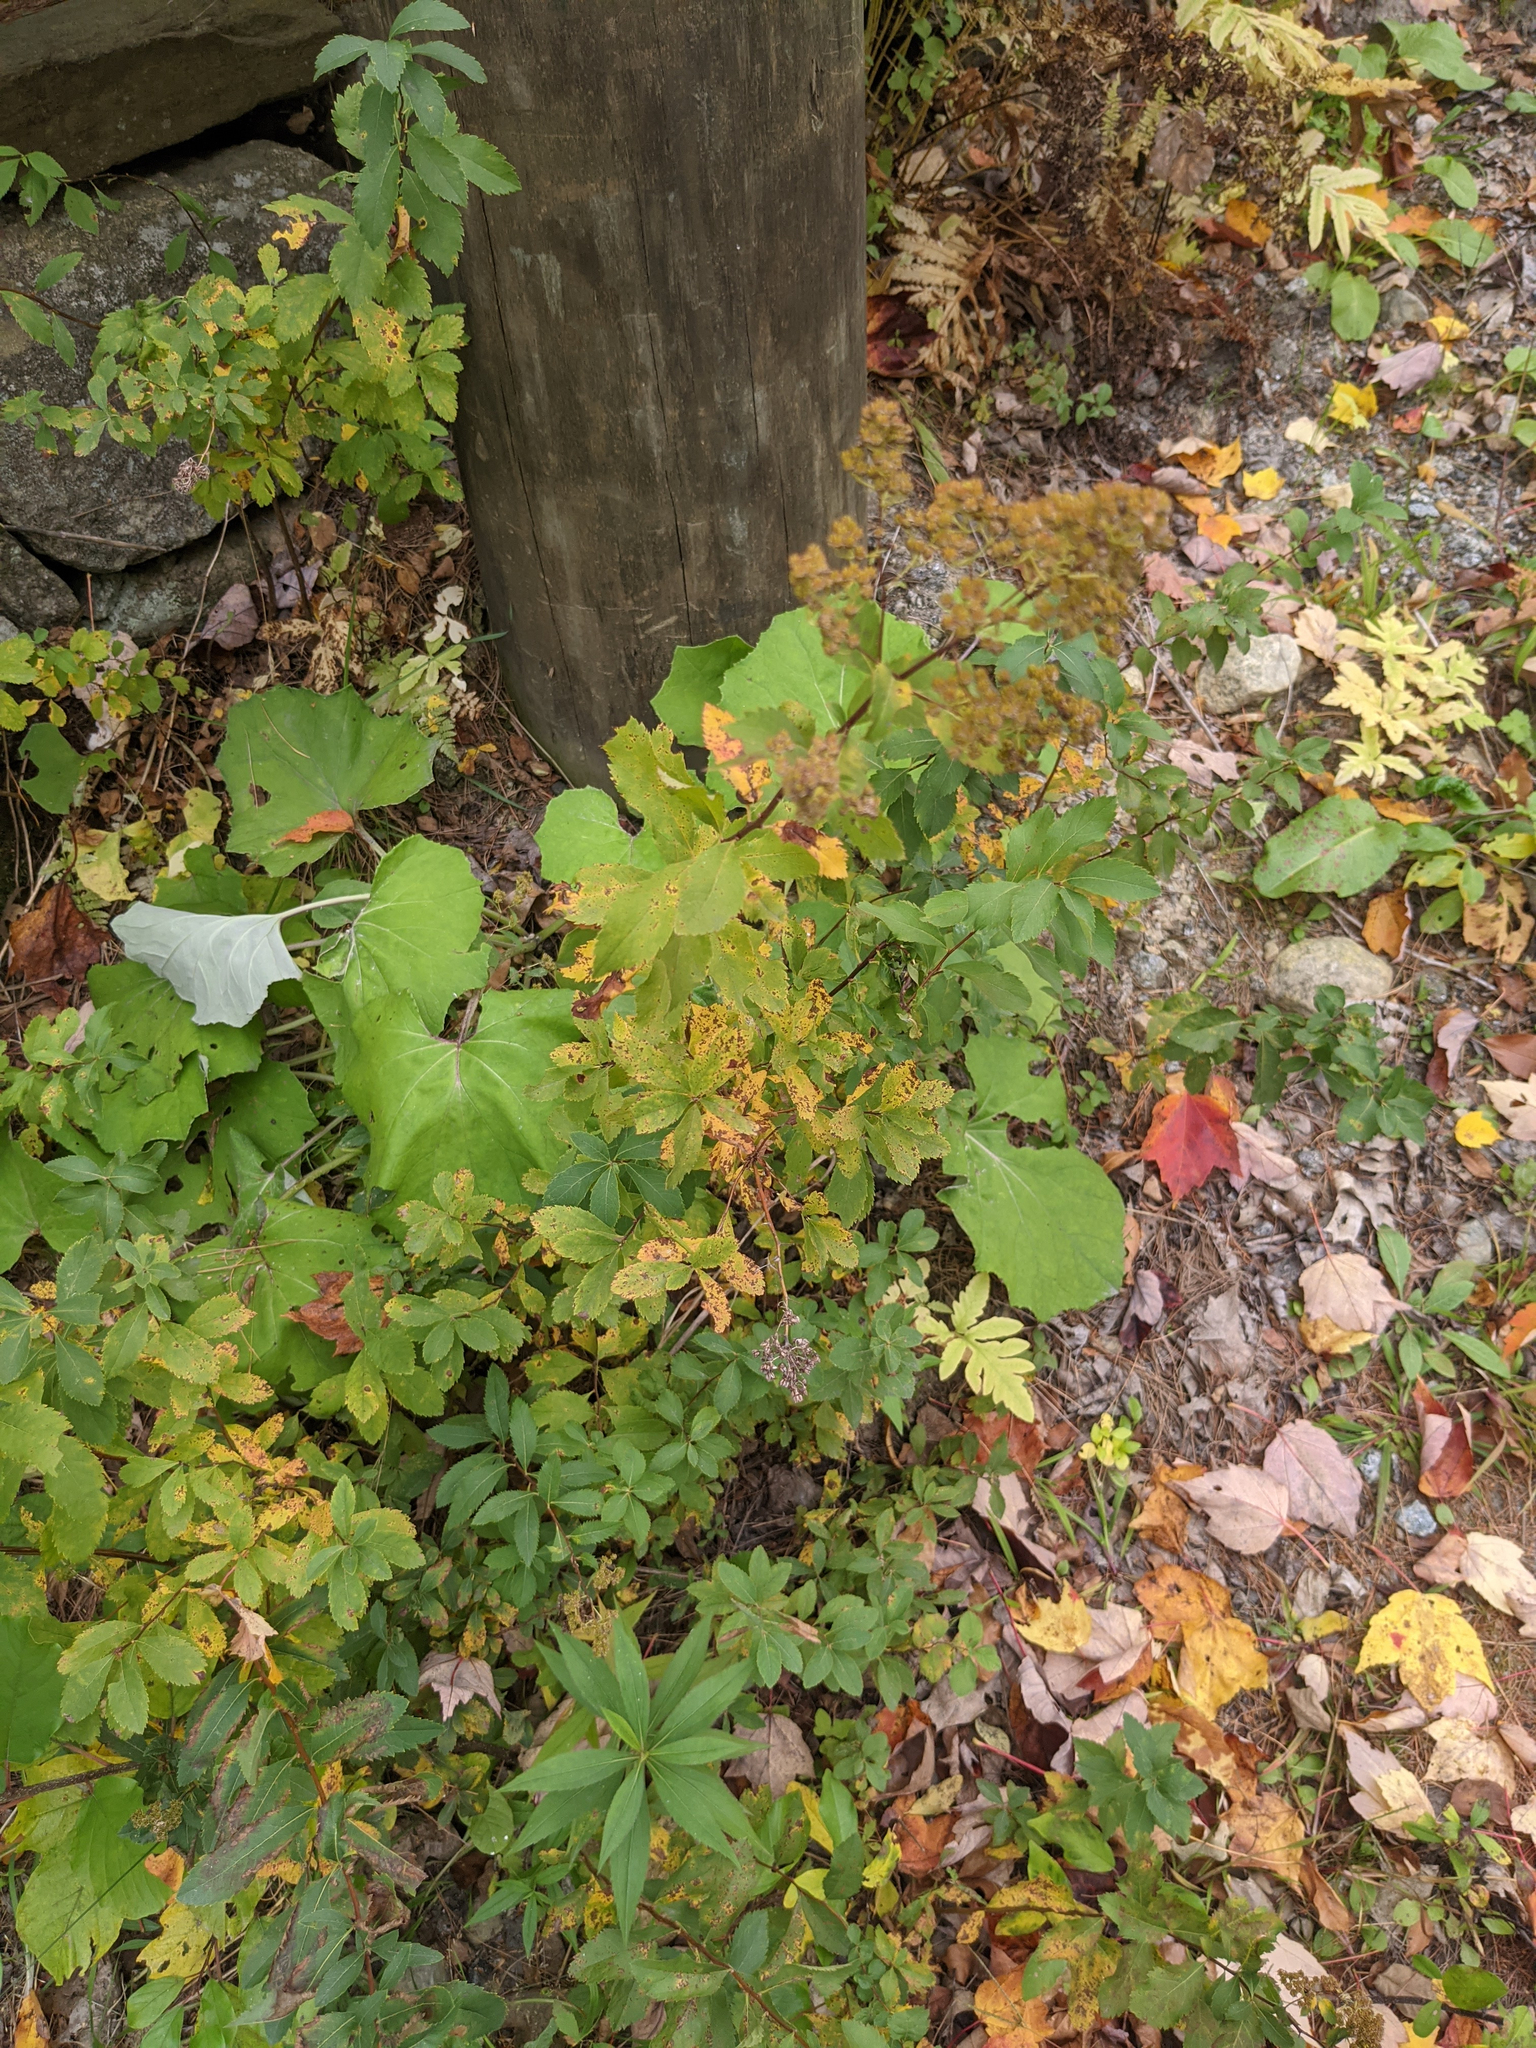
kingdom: Plantae
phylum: Tracheophyta
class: Magnoliopsida
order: Rosales
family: Rosaceae
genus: Spiraea
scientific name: Spiraea alba
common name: Pale bridewort
